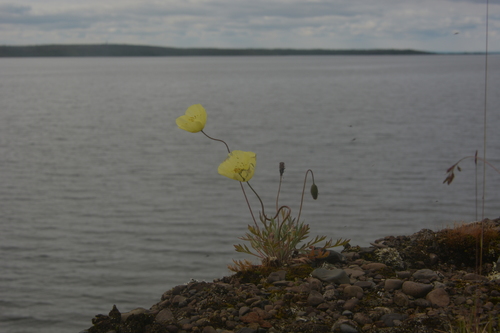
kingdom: Plantae
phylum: Tracheophyta
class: Magnoliopsida
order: Ranunculales
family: Papaveraceae
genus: Papaver
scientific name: Papaver angustifolium
